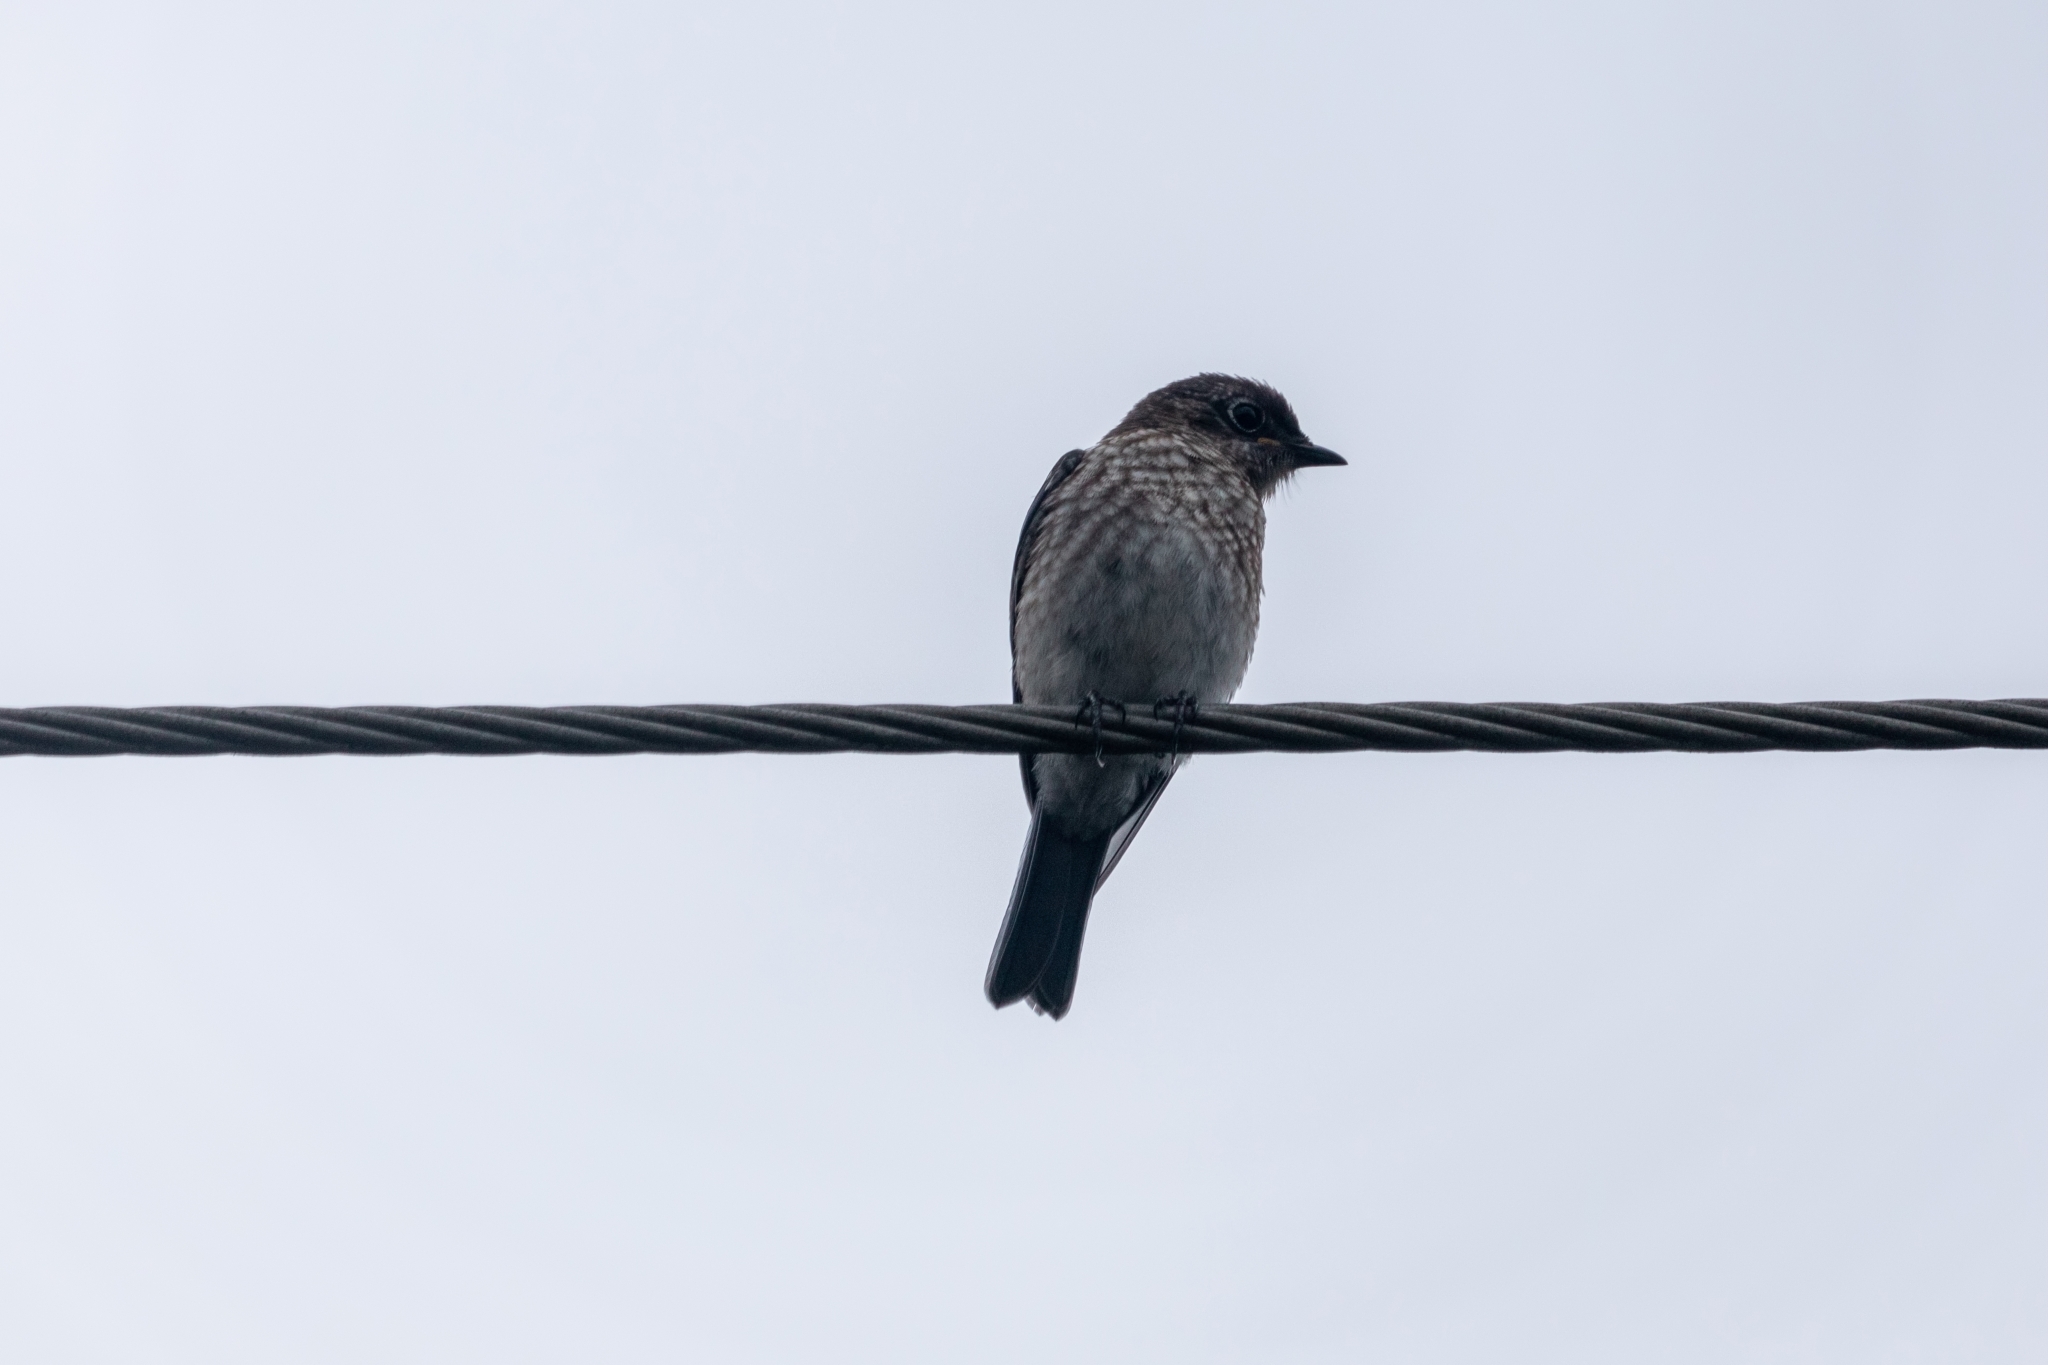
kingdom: Animalia
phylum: Chordata
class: Aves
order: Passeriformes
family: Turdidae
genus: Sialia
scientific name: Sialia sialis
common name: Eastern bluebird
